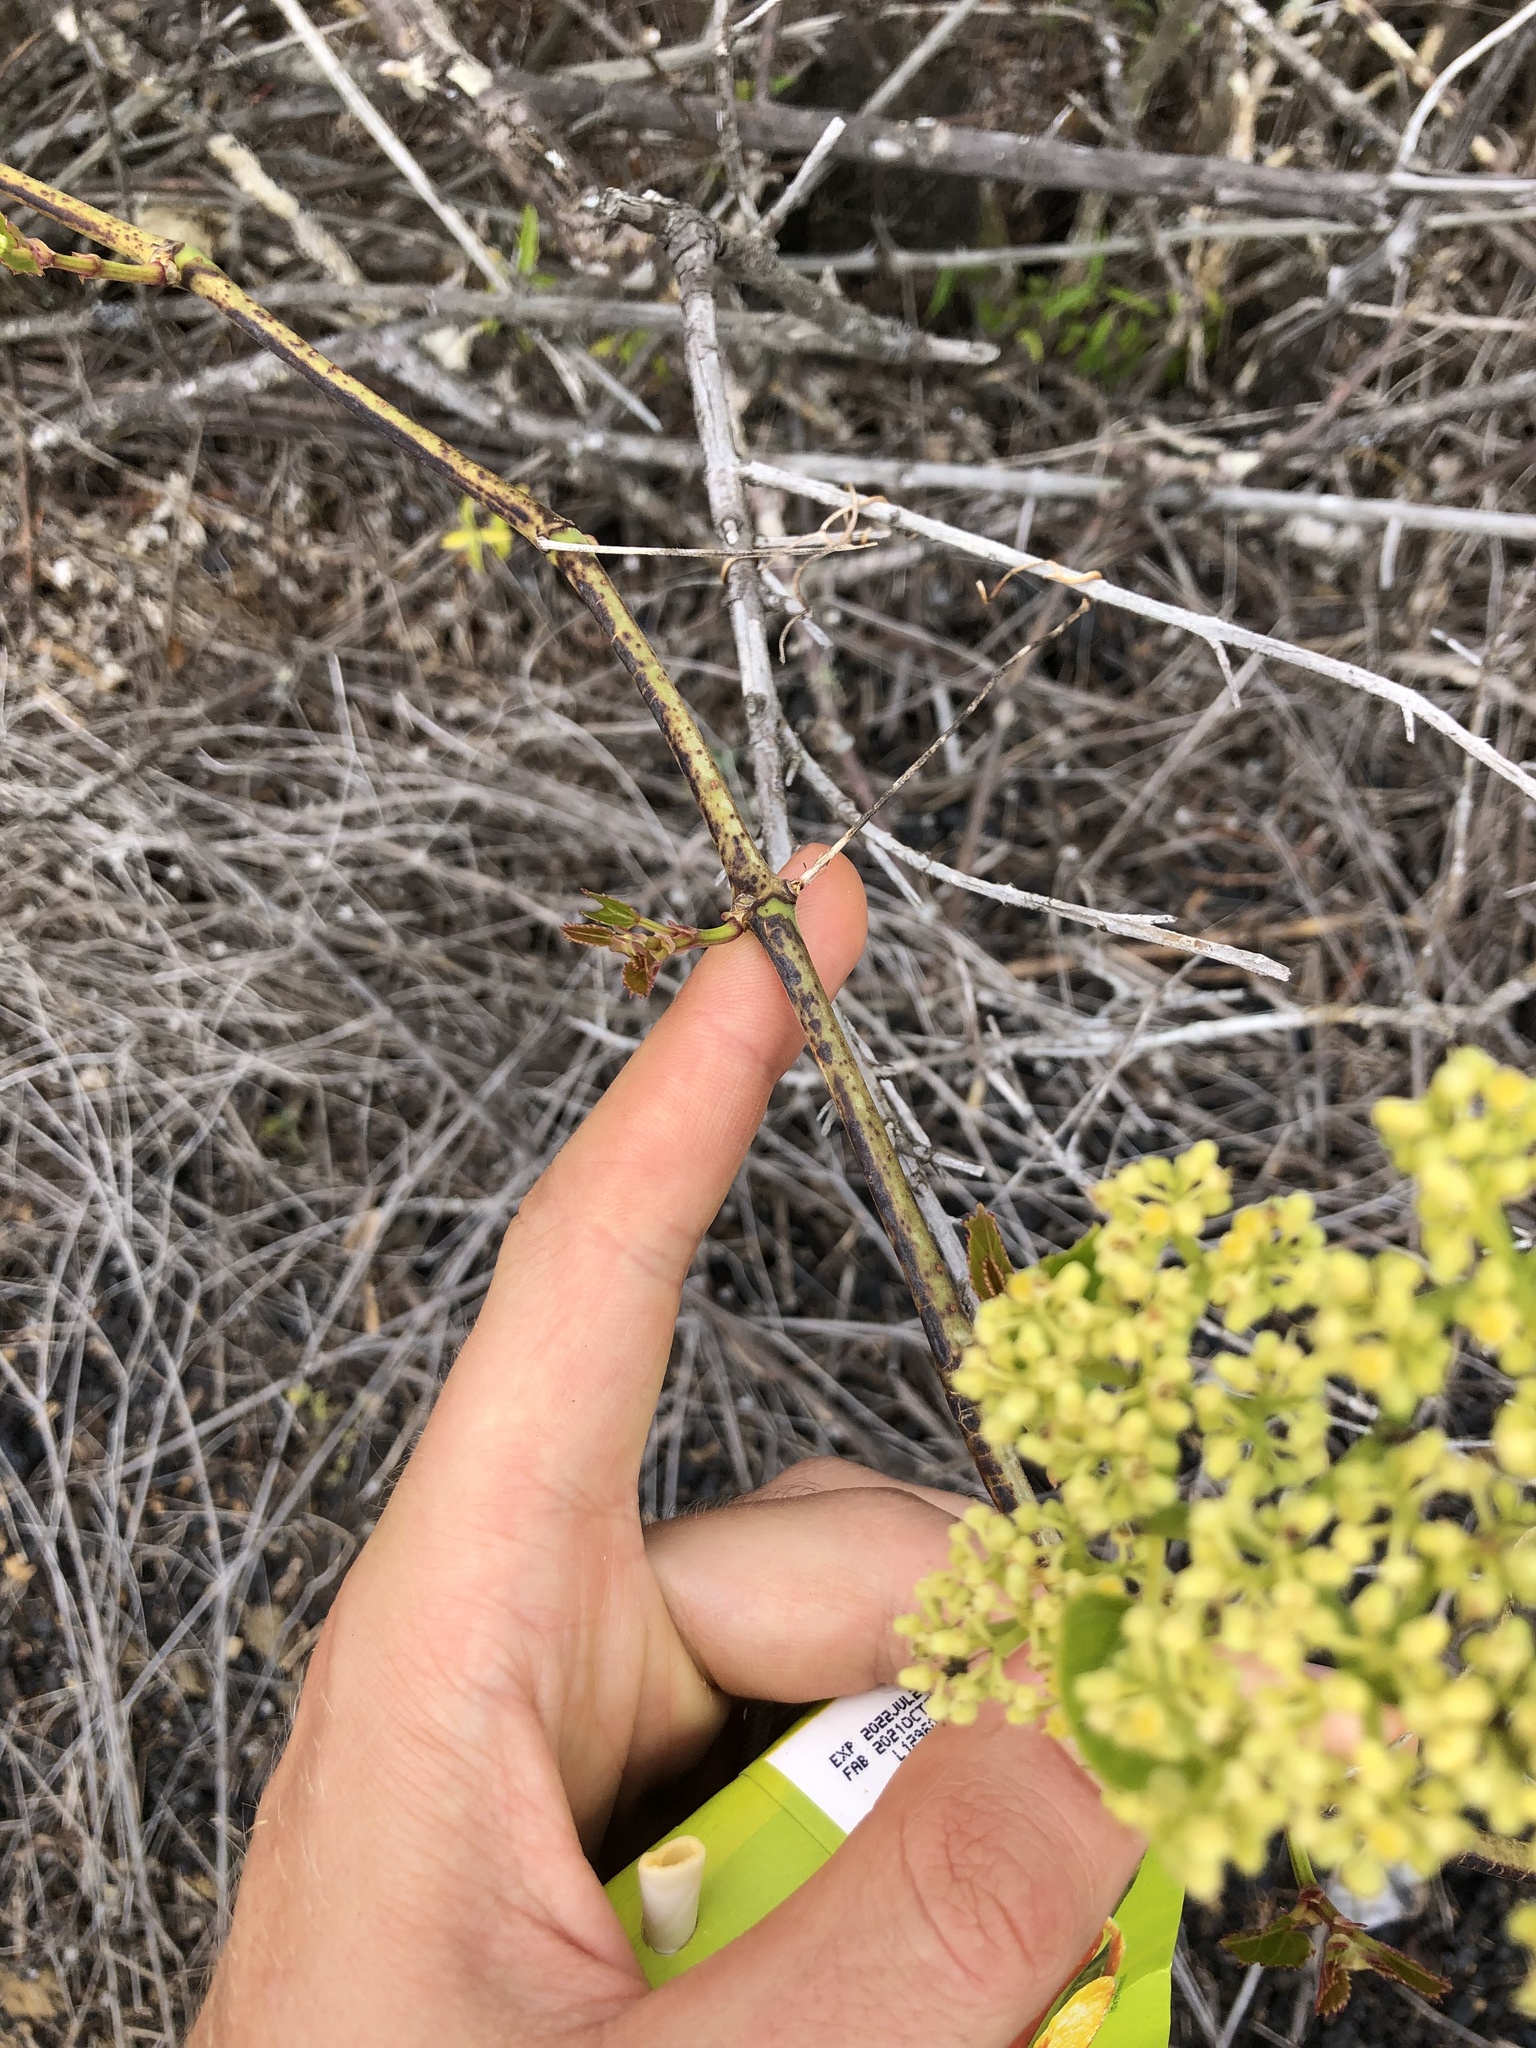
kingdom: Plantae
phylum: Tracheophyta
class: Magnoliopsida
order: Vitales
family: Vitaceae
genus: Cissus
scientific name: Cissus verticillata
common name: Princess vine
